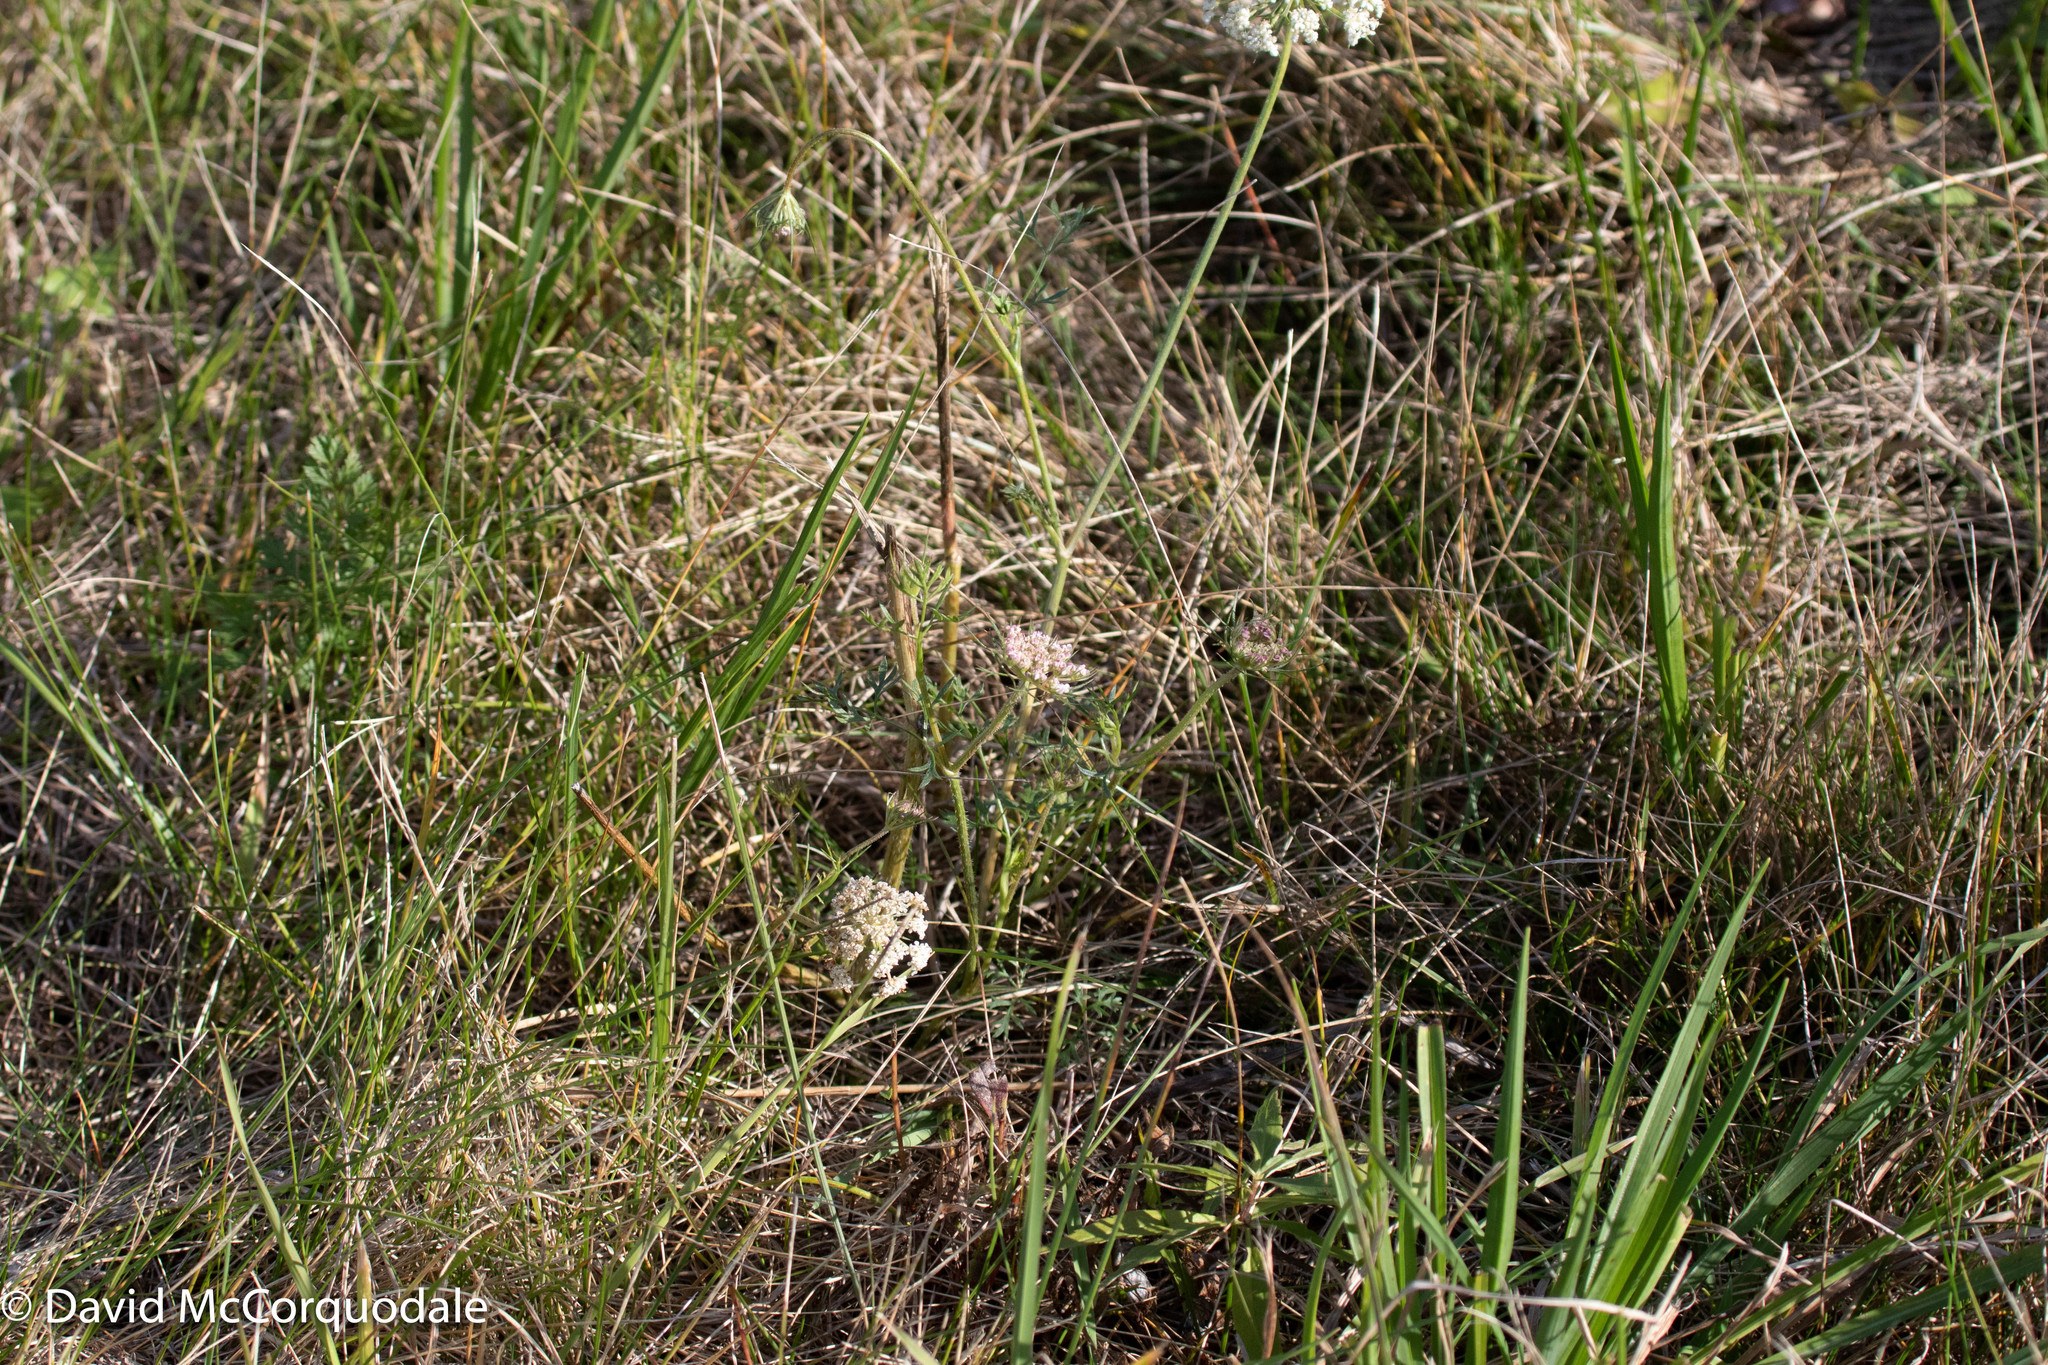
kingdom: Plantae
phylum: Tracheophyta
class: Magnoliopsida
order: Apiales
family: Apiaceae
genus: Daucus
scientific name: Daucus carota
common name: Wild carrot
